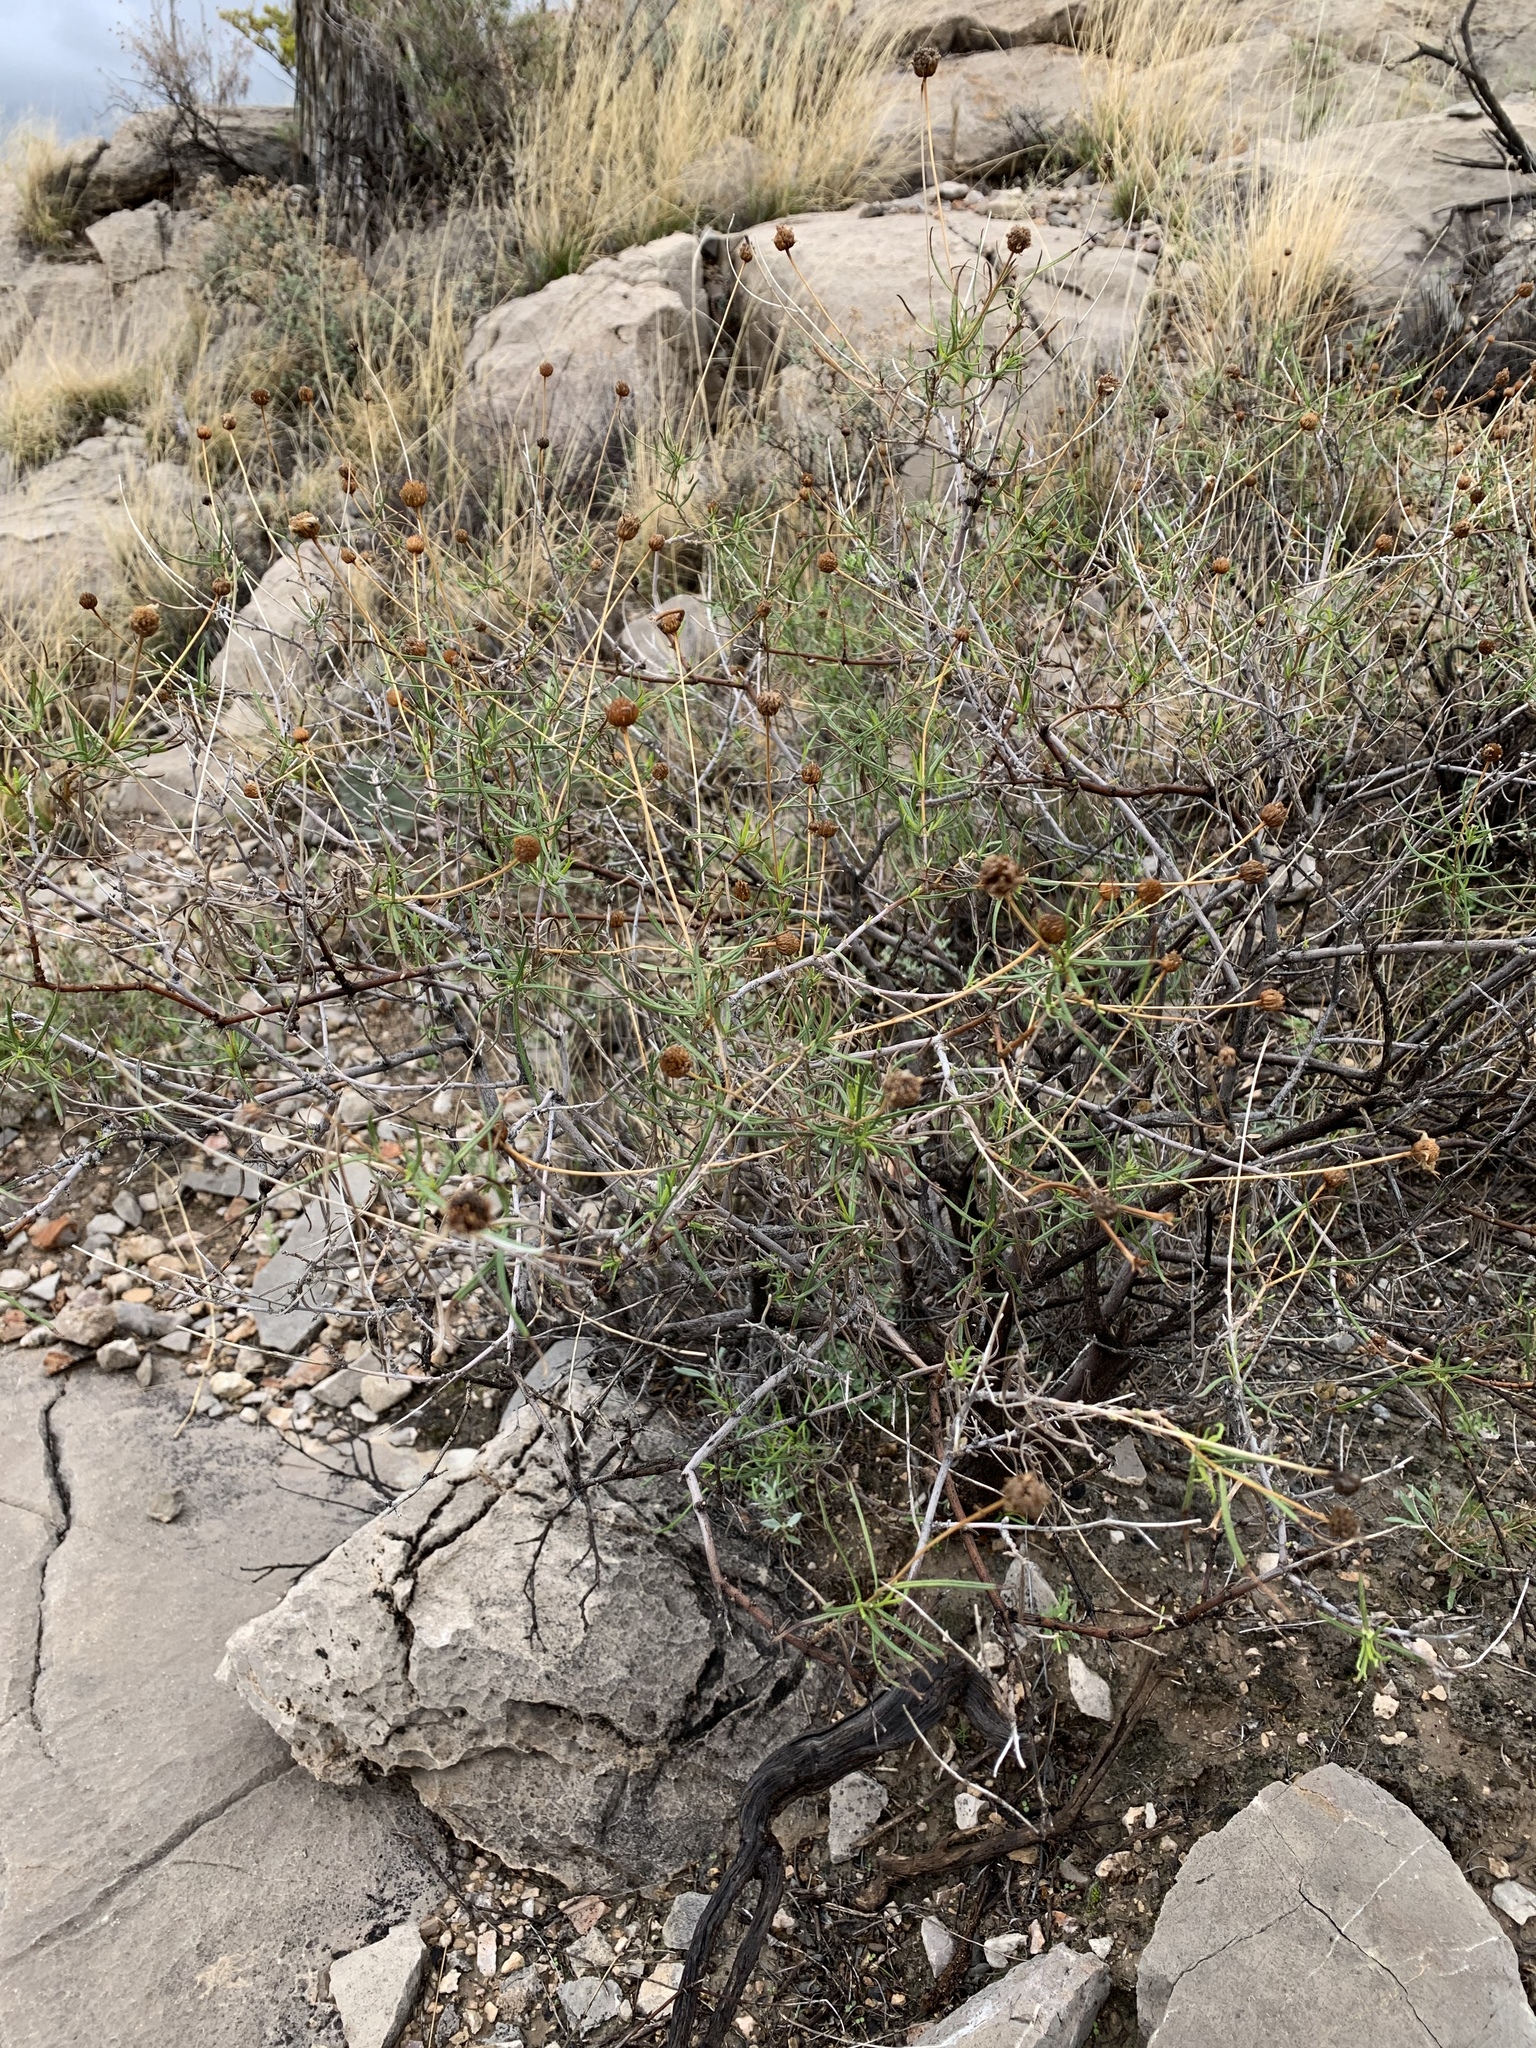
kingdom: Plantae
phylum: Tracheophyta
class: Magnoliopsida
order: Asterales
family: Asteraceae
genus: Sidneya
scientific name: Sidneya tenuifolia
